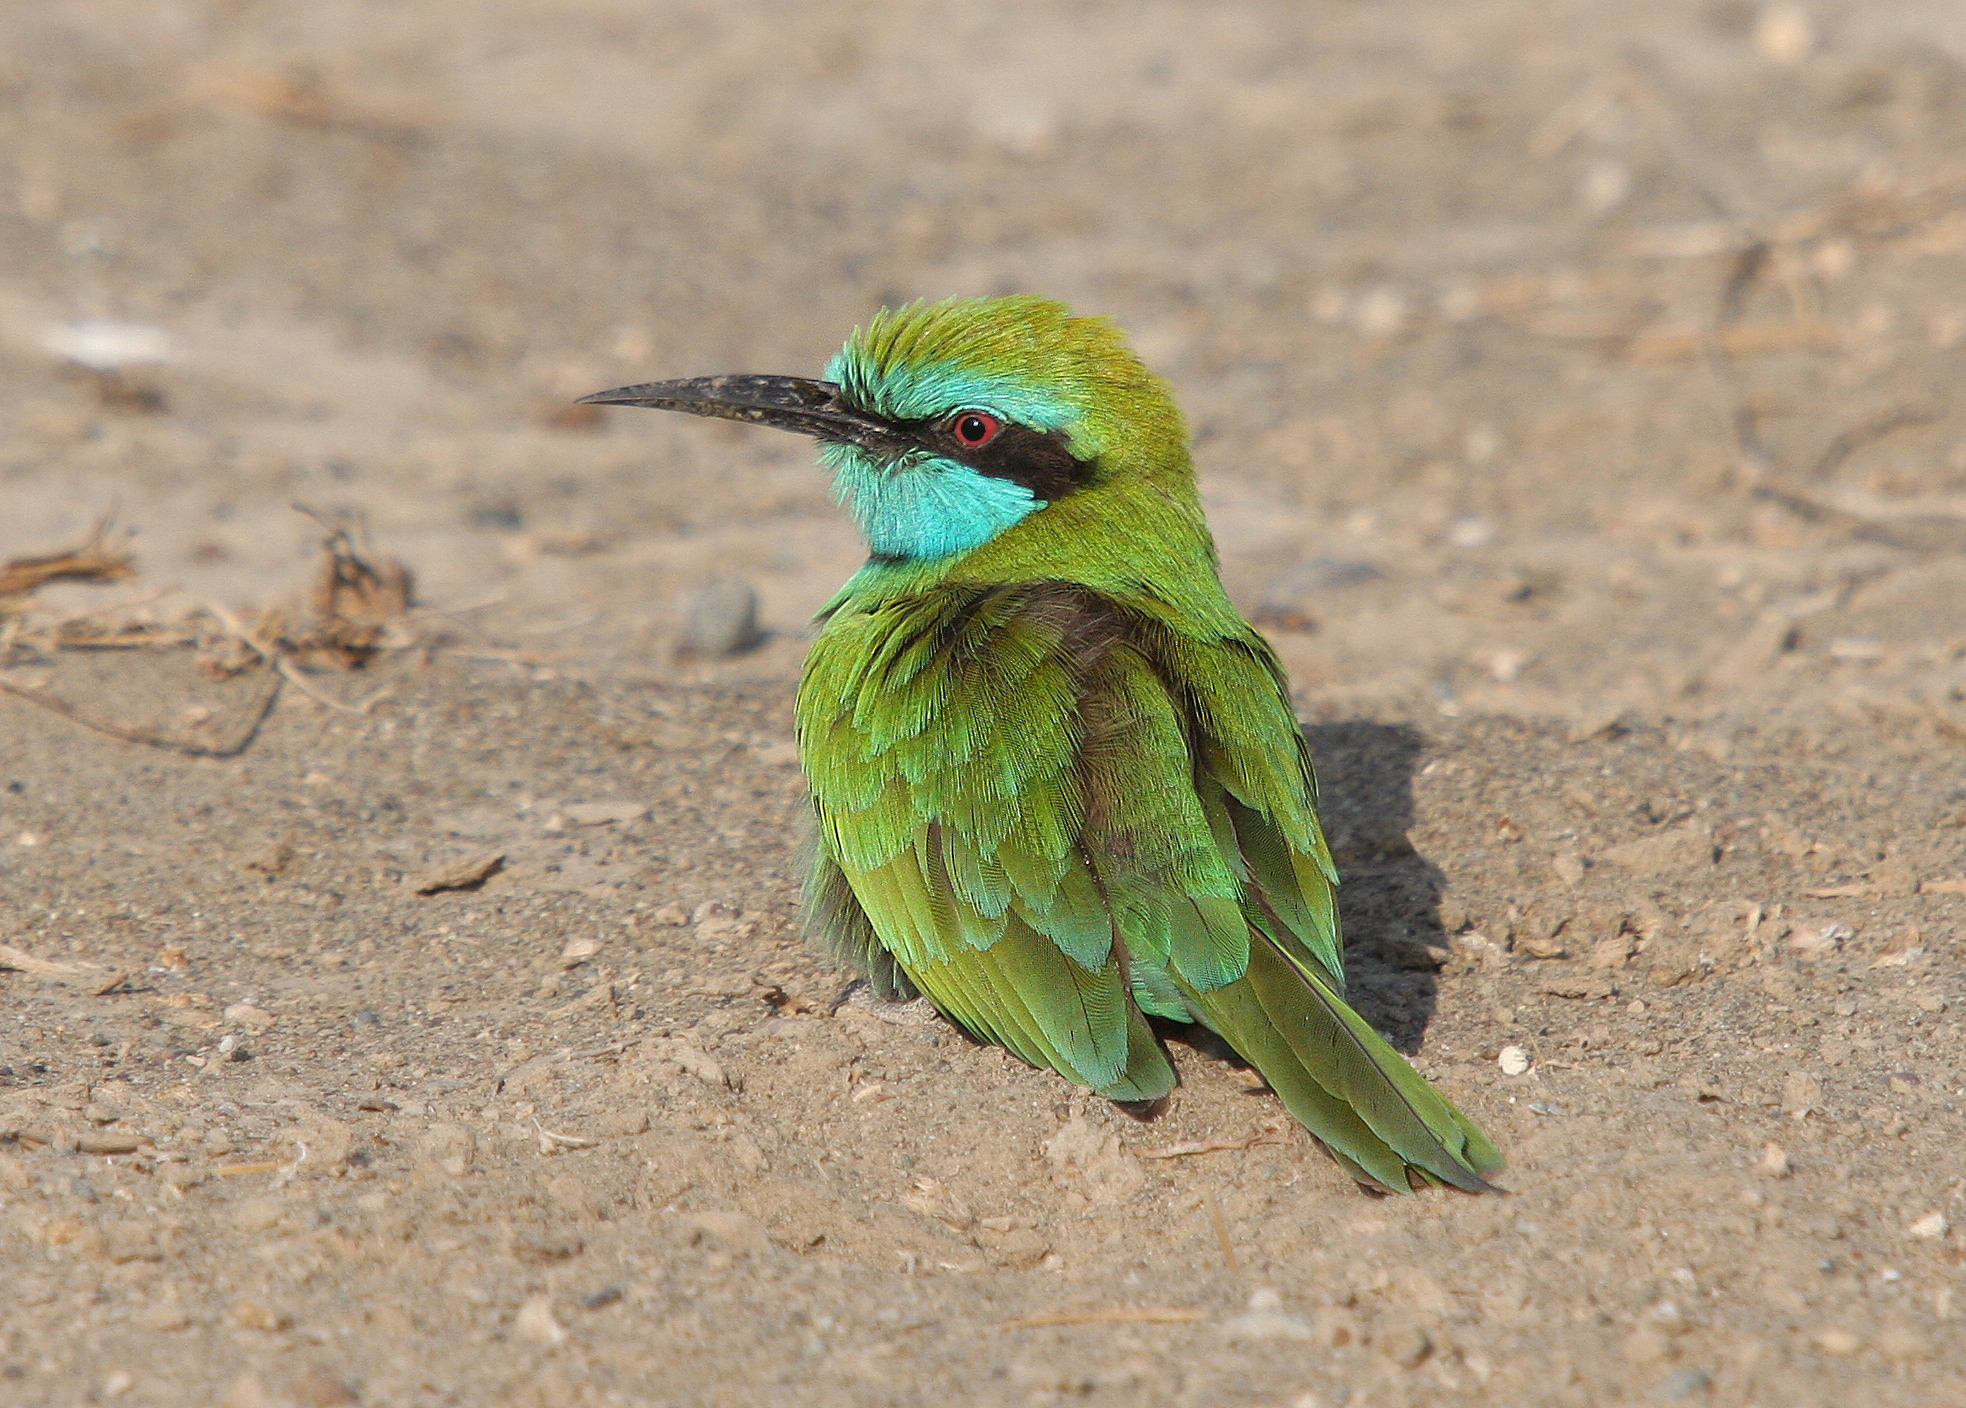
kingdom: Animalia
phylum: Chordata
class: Aves
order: Coraciiformes
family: Meropidae
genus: Merops
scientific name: Merops cyanophrys
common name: Arabian green bee-eater
